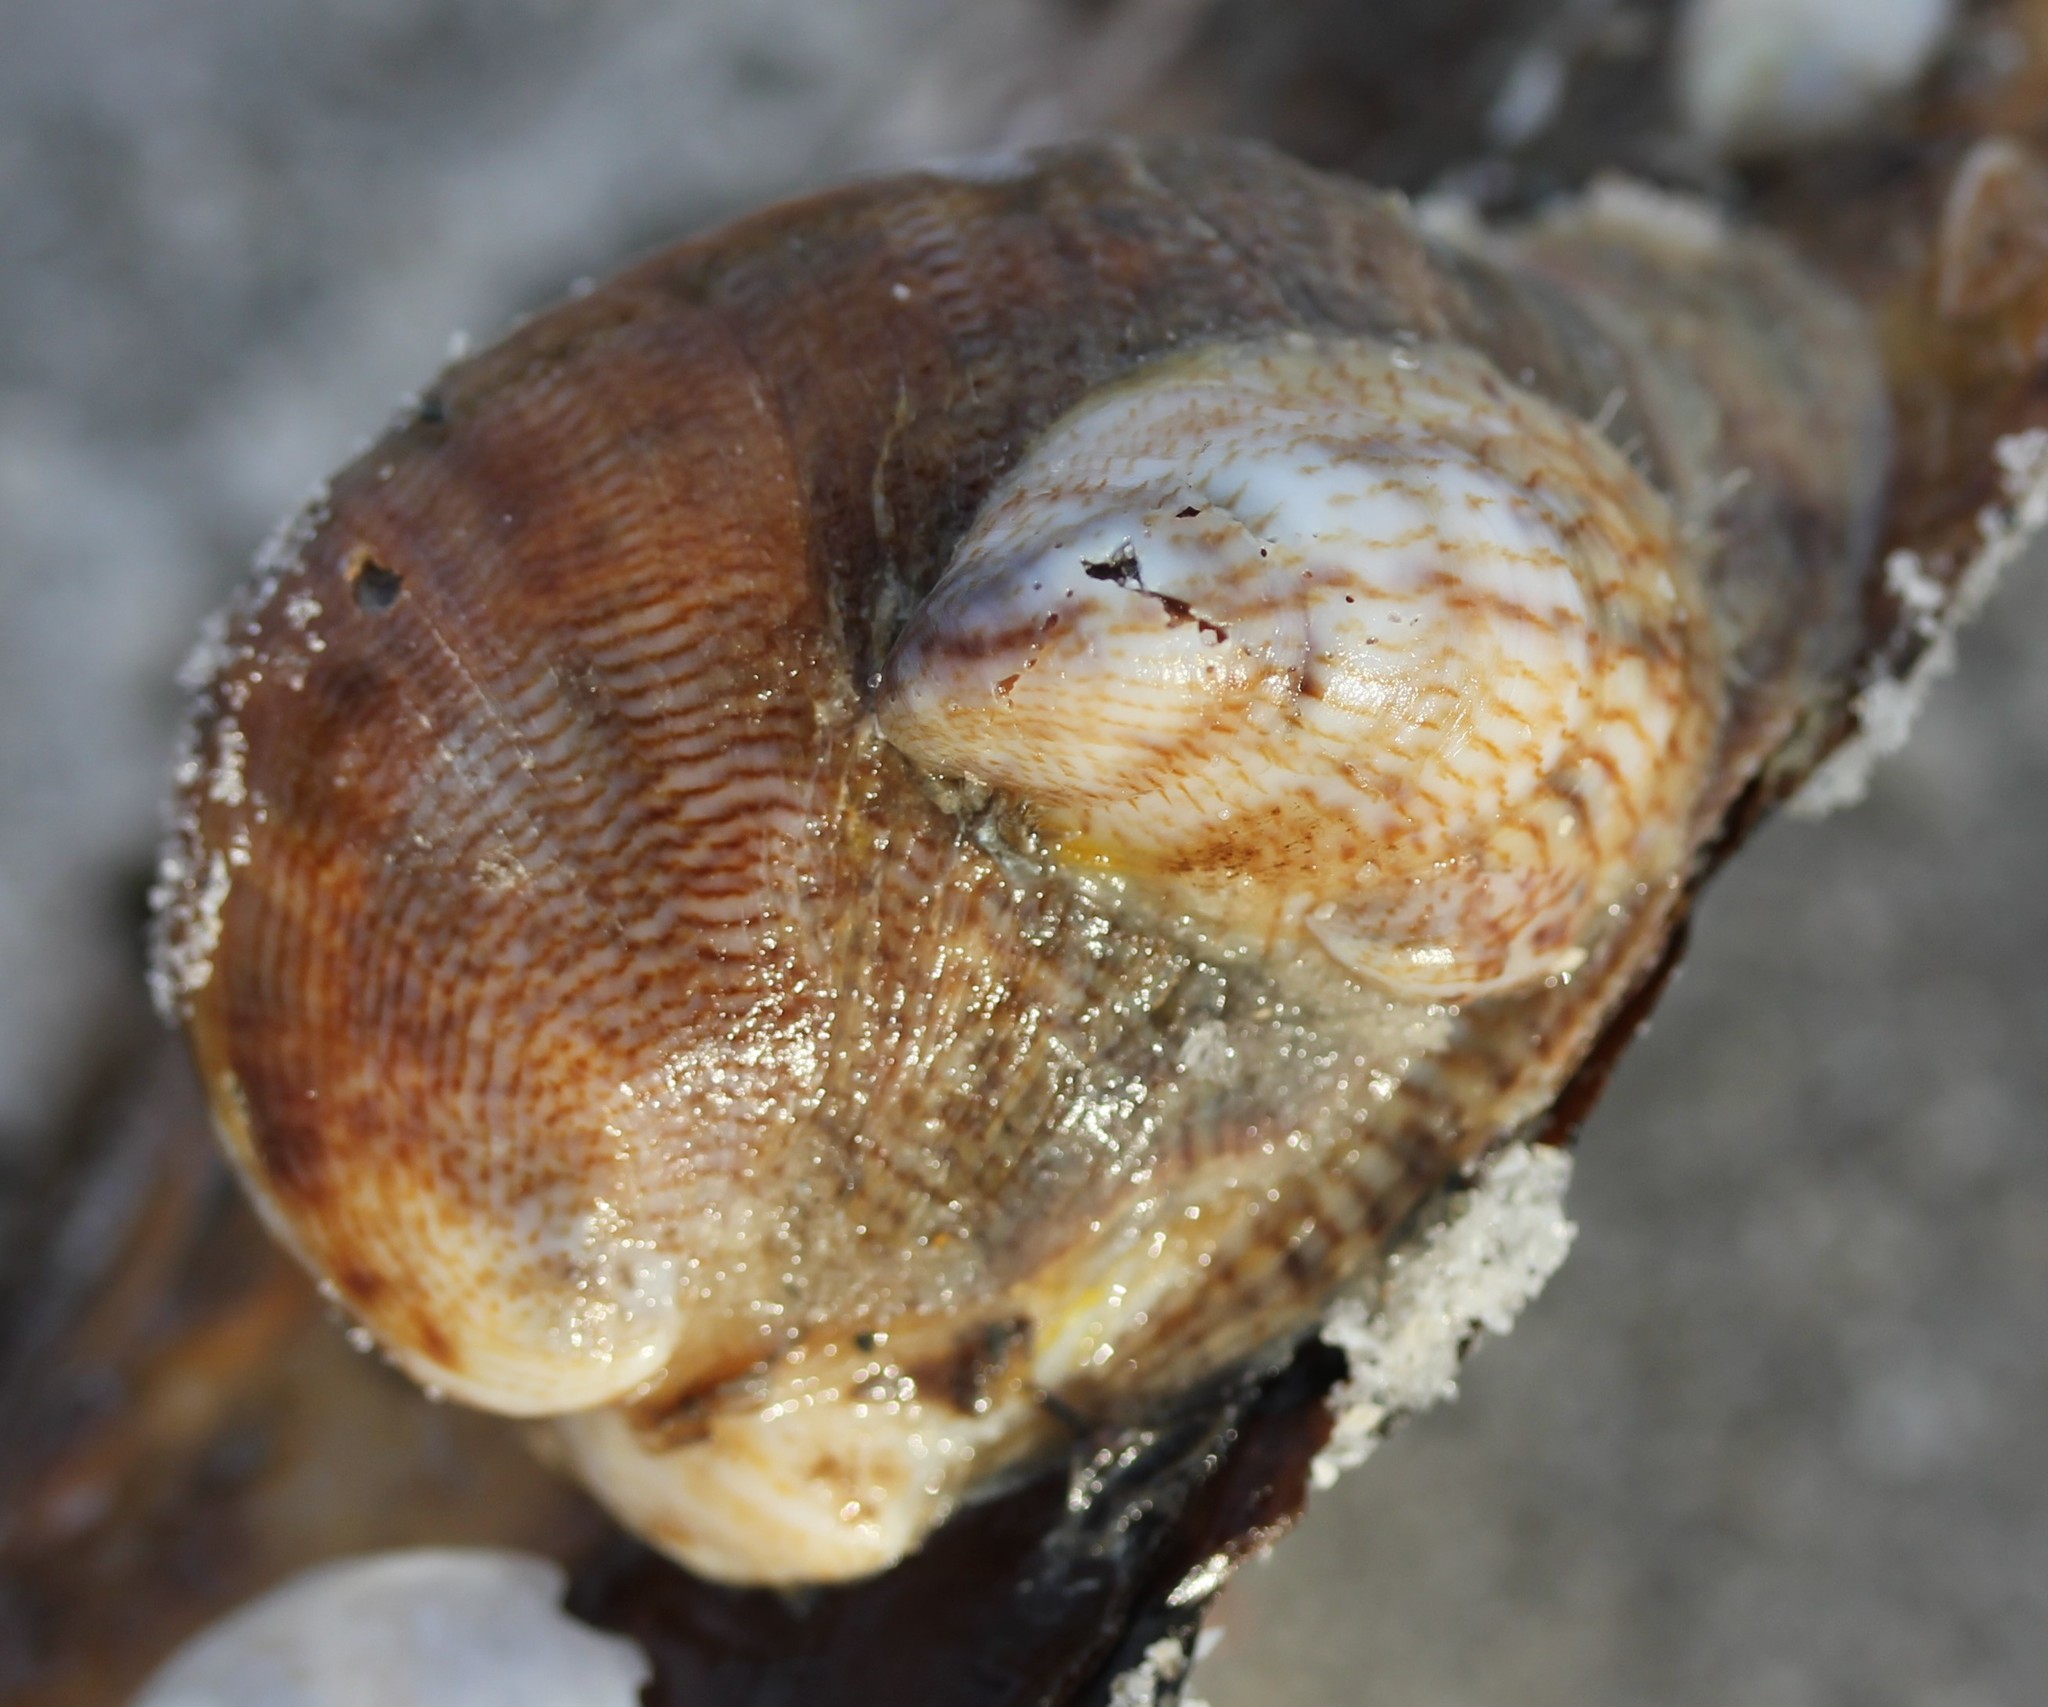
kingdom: Animalia
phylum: Mollusca
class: Gastropoda
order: Littorinimorpha
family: Calyptraeidae
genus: Crepidula
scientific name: Crepidula fornicata
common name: Slipper limpet
